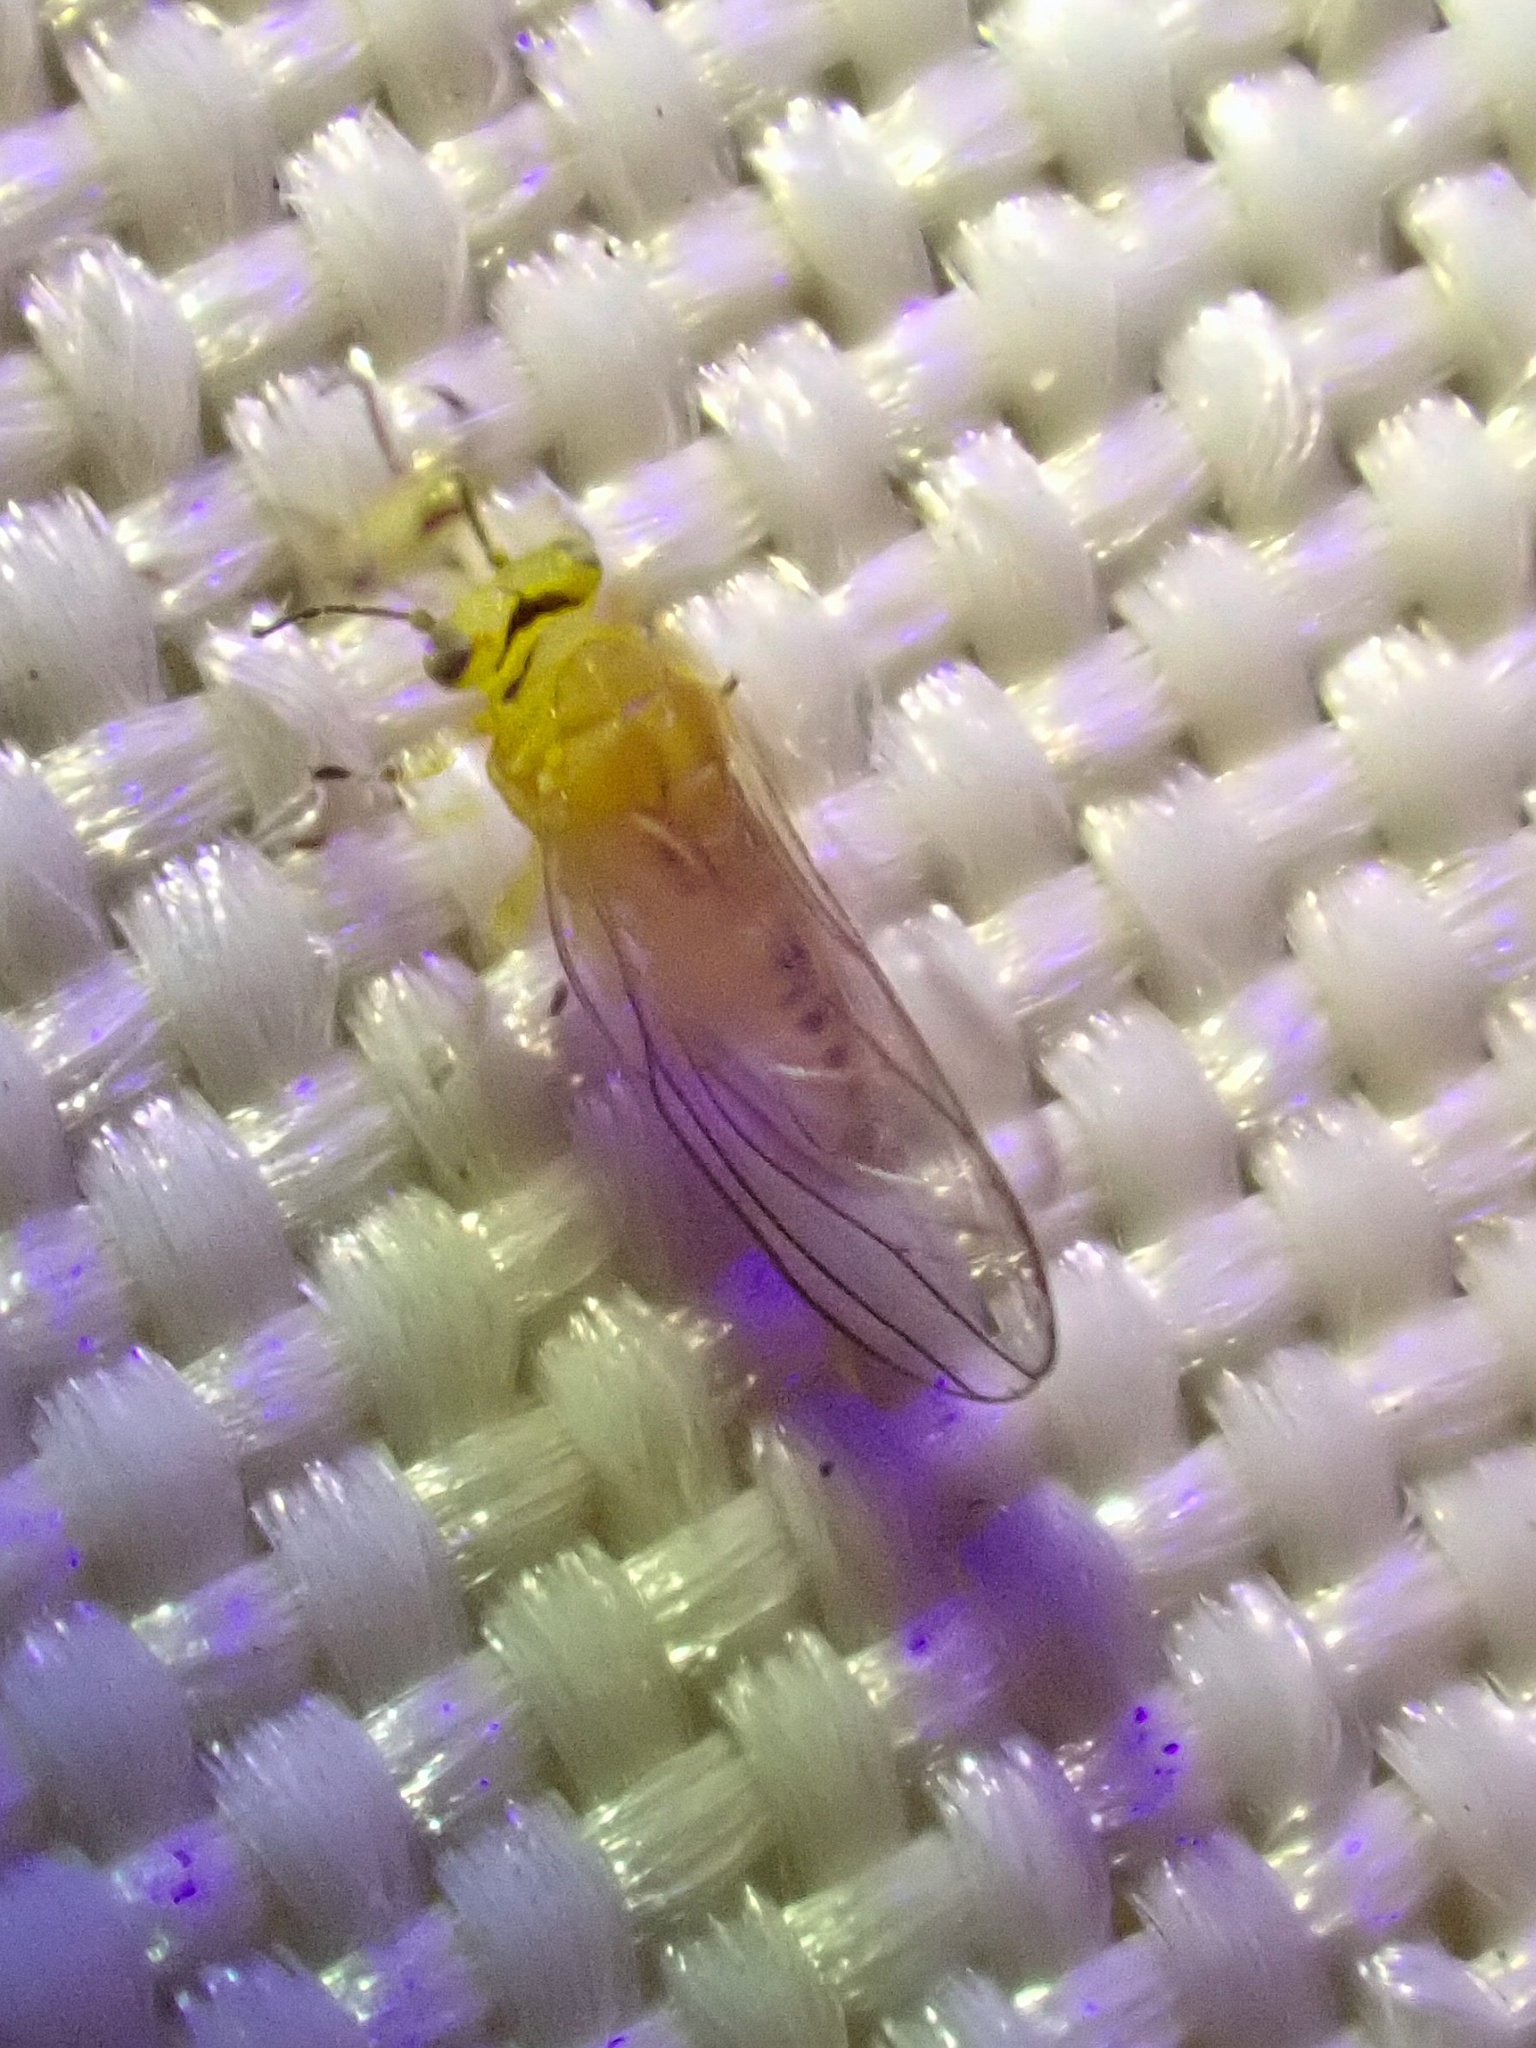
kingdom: Animalia
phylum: Arthropoda
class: Insecta
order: Hemiptera
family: Calophyidae
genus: Calophya
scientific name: Calophya schini
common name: Pepper tree psyllid
